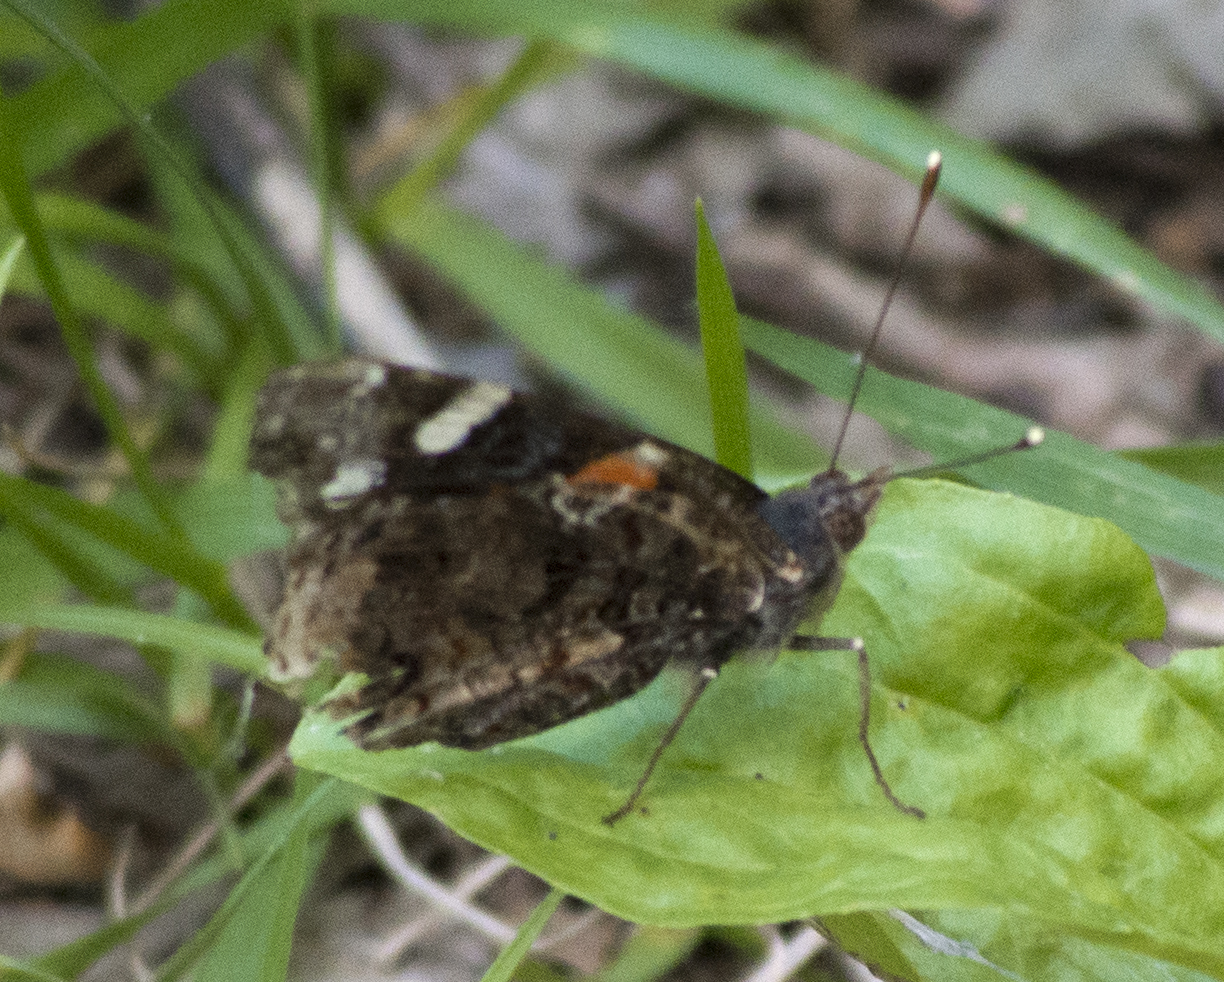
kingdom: Animalia
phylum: Arthropoda
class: Insecta
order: Lepidoptera
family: Nymphalidae
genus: Vanessa
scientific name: Vanessa atalanta
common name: Red admiral
